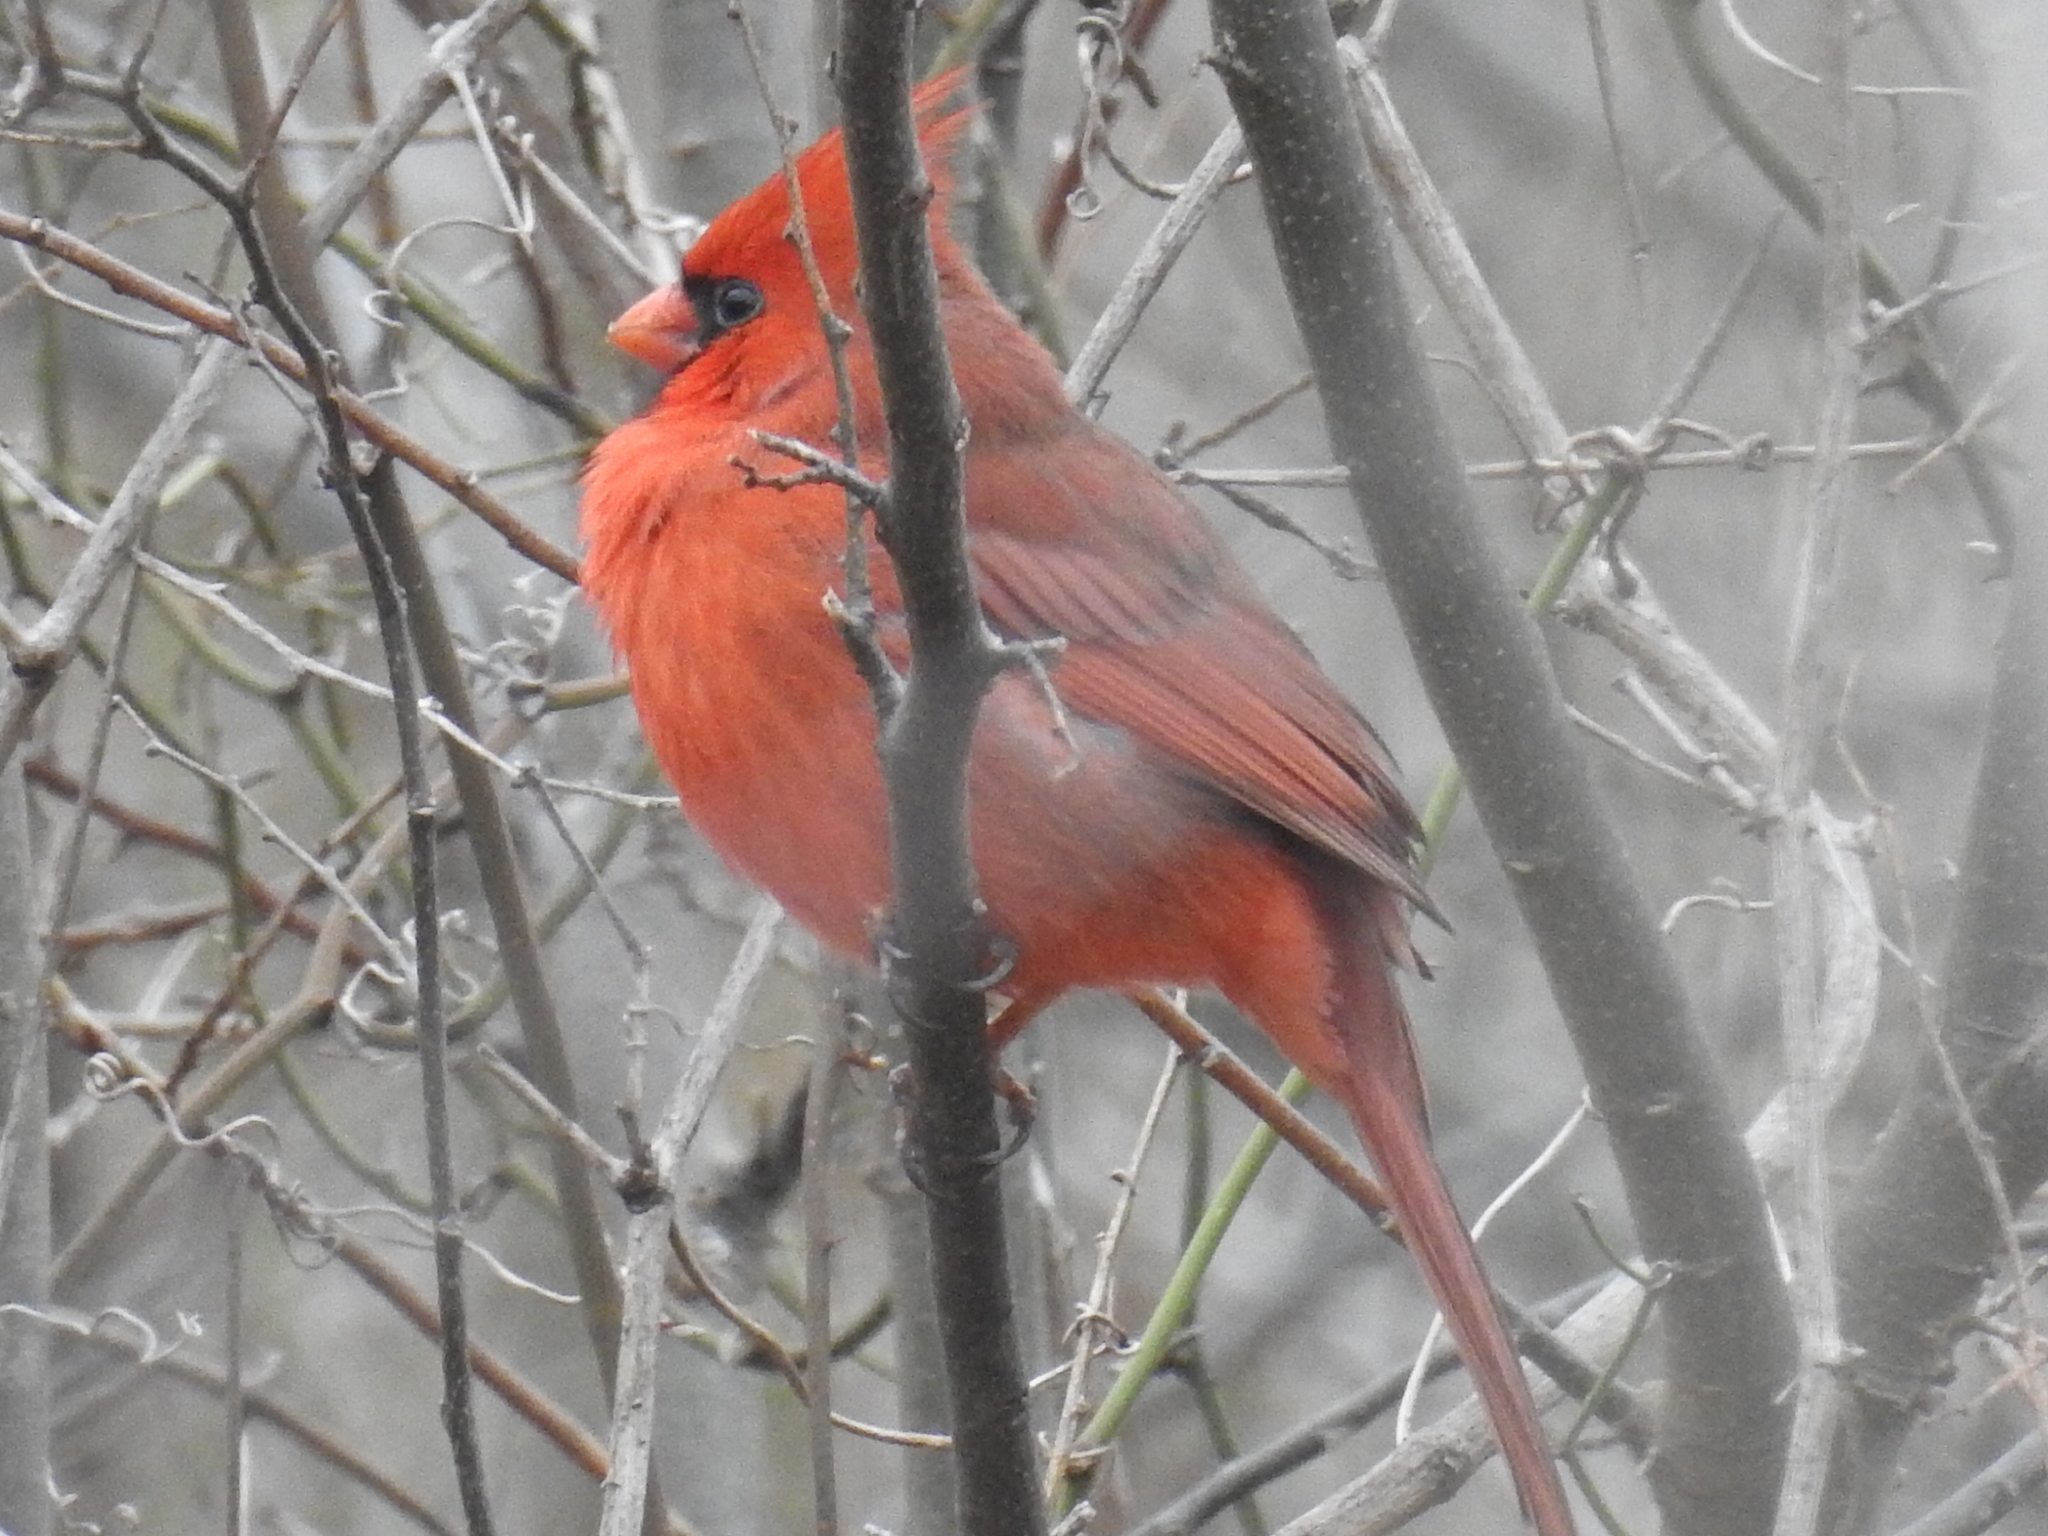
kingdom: Animalia
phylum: Chordata
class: Aves
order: Passeriformes
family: Cardinalidae
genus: Cardinalis
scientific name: Cardinalis cardinalis
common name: Northern cardinal
